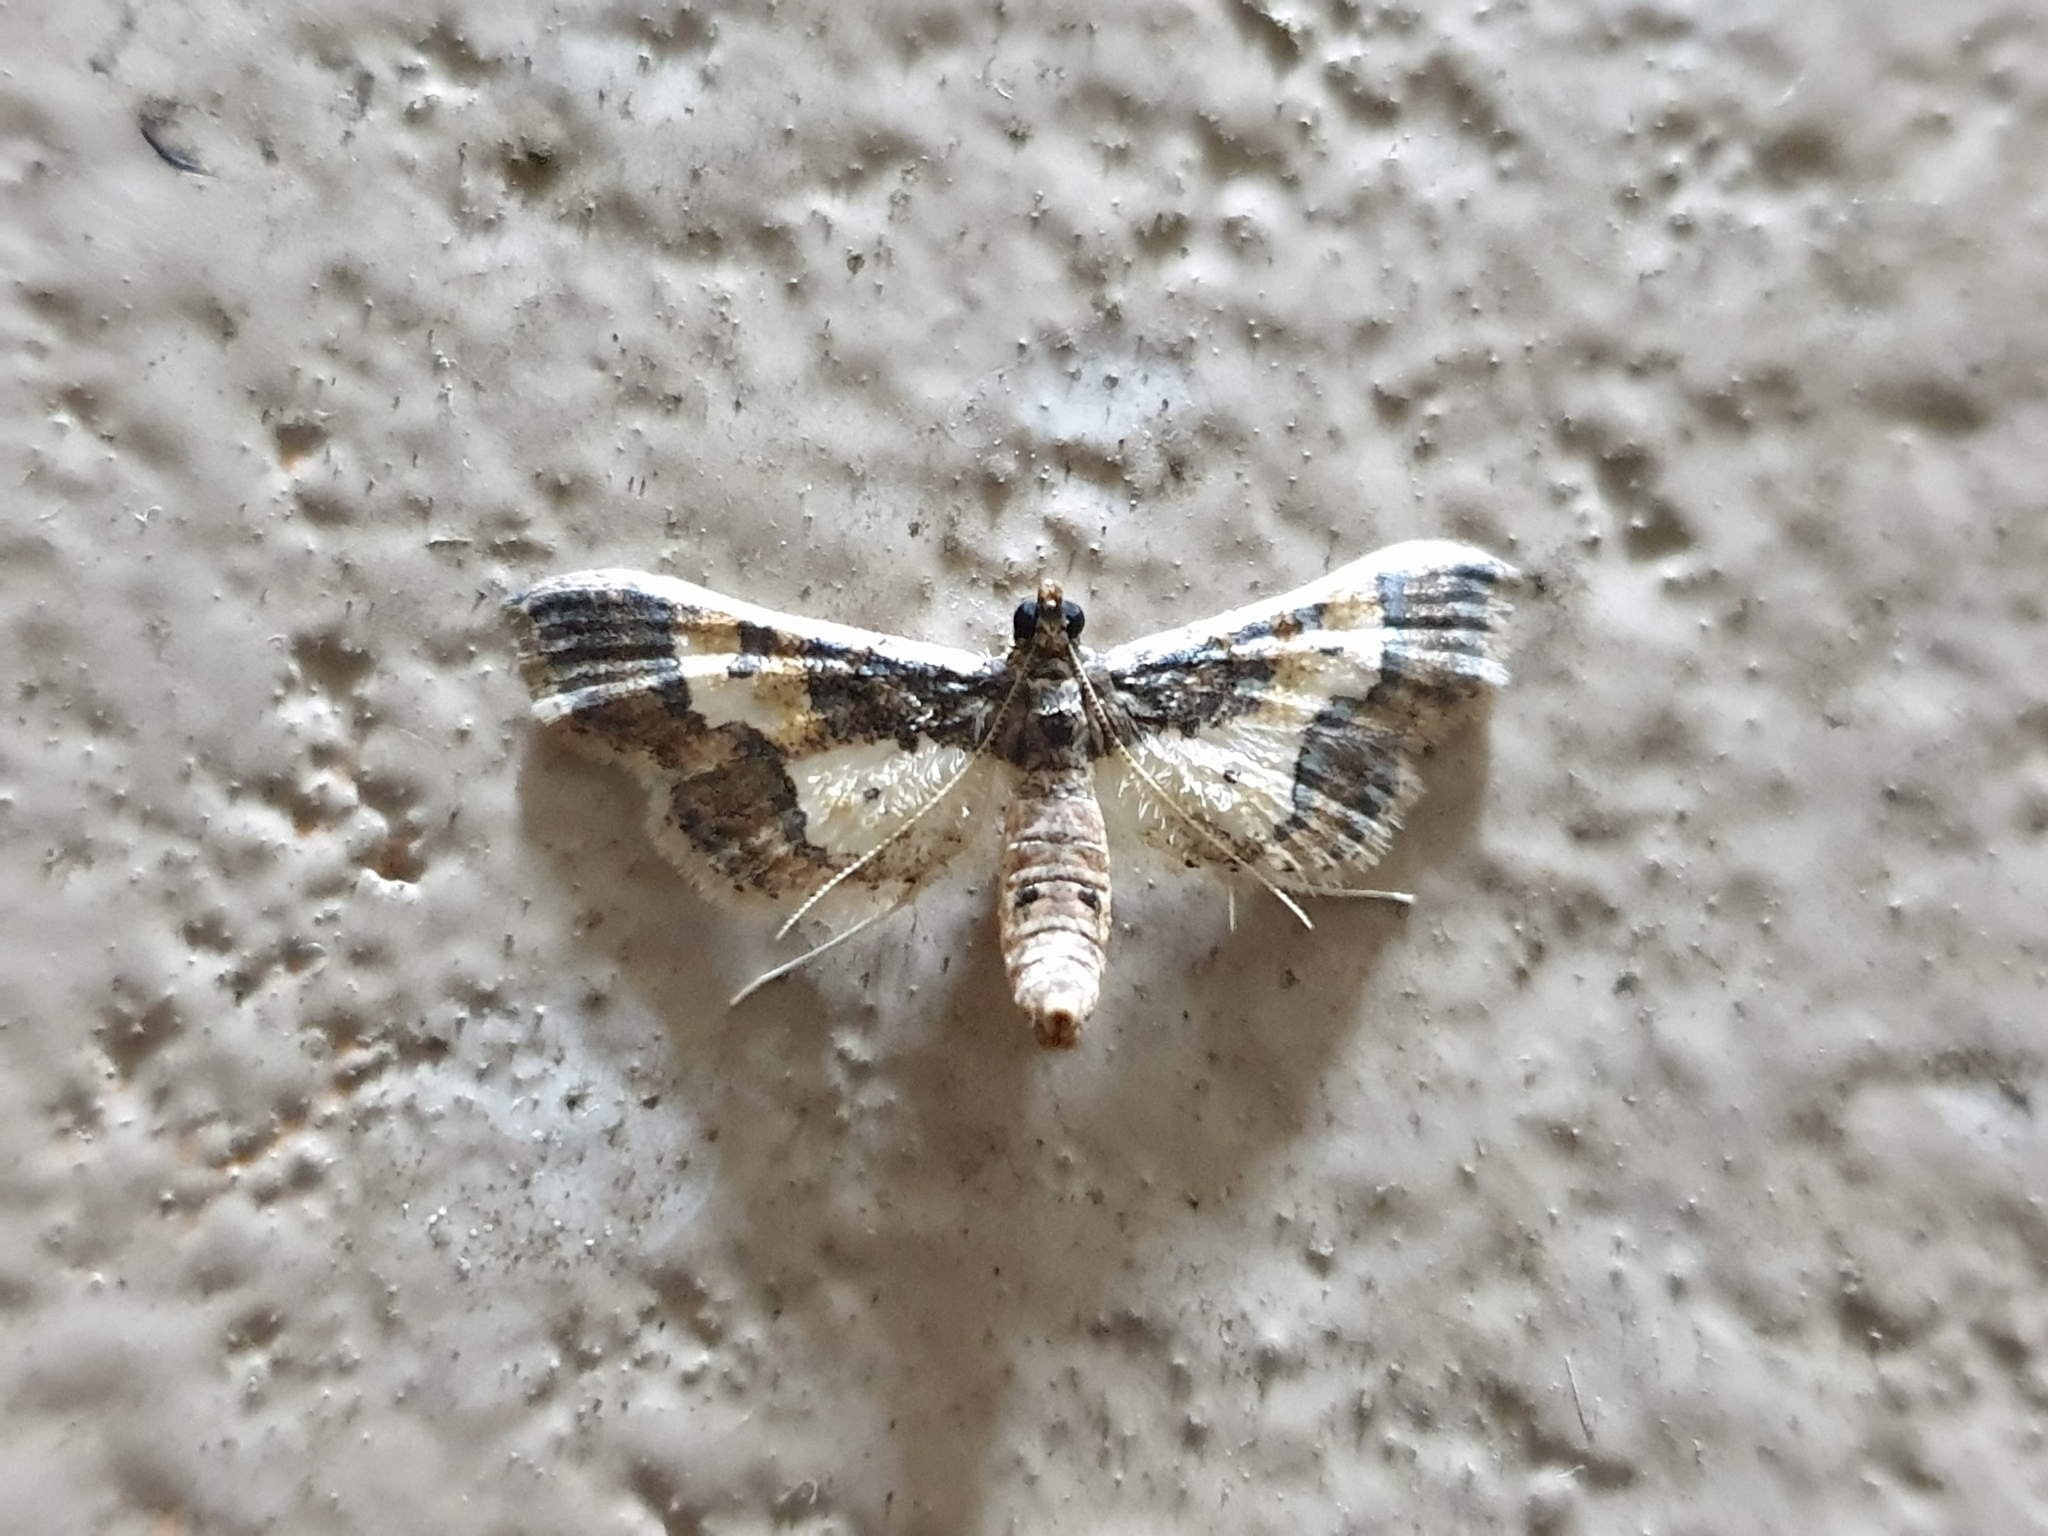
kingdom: Animalia
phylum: Arthropoda
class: Insecta
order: Lepidoptera
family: Crambidae
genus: Hydriris
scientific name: Hydriris ornatalis
